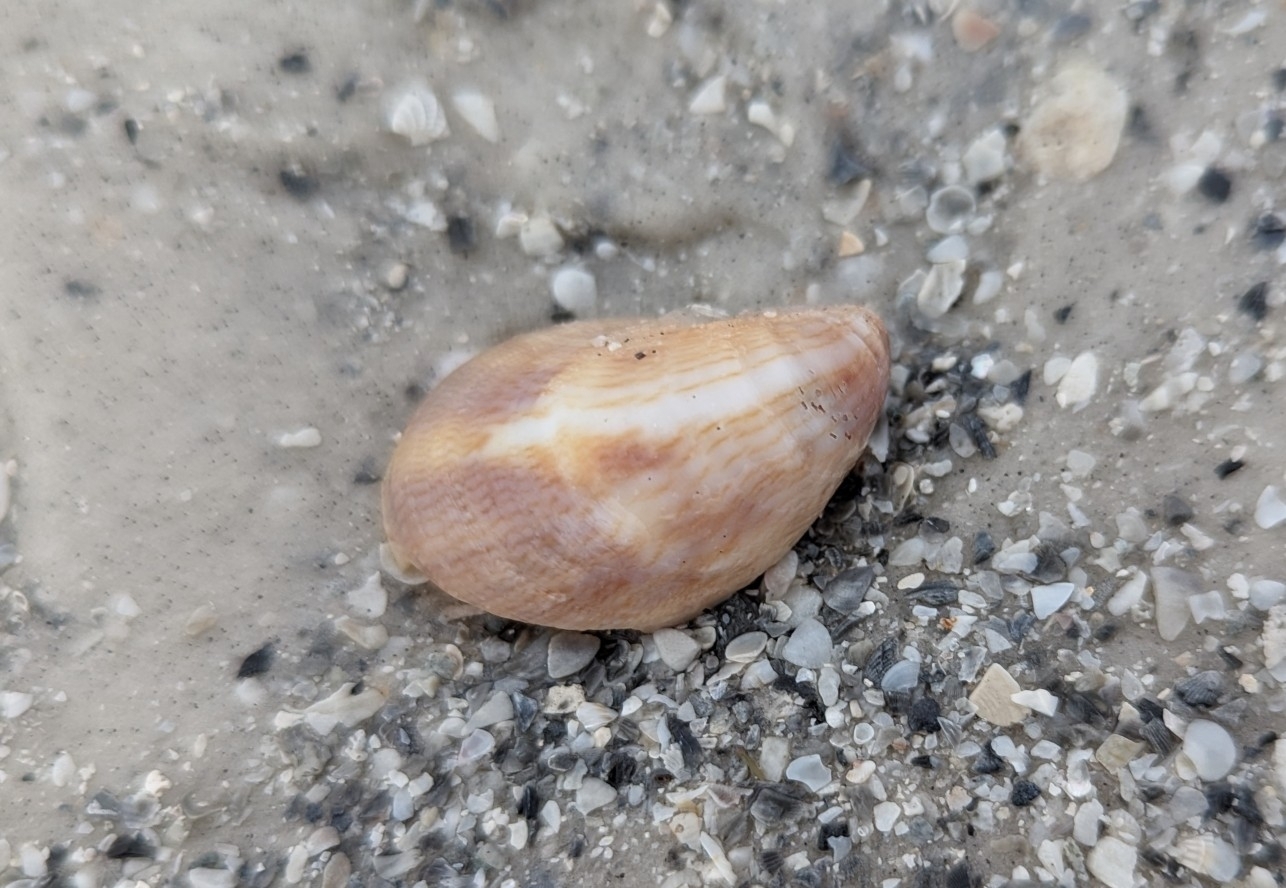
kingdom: Animalia
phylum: Mollusca
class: Gastropoda
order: Littorinimorpha
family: Calyptraeidae
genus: Crepidula
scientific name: Crepidula fornicata
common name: Slipper limpet
